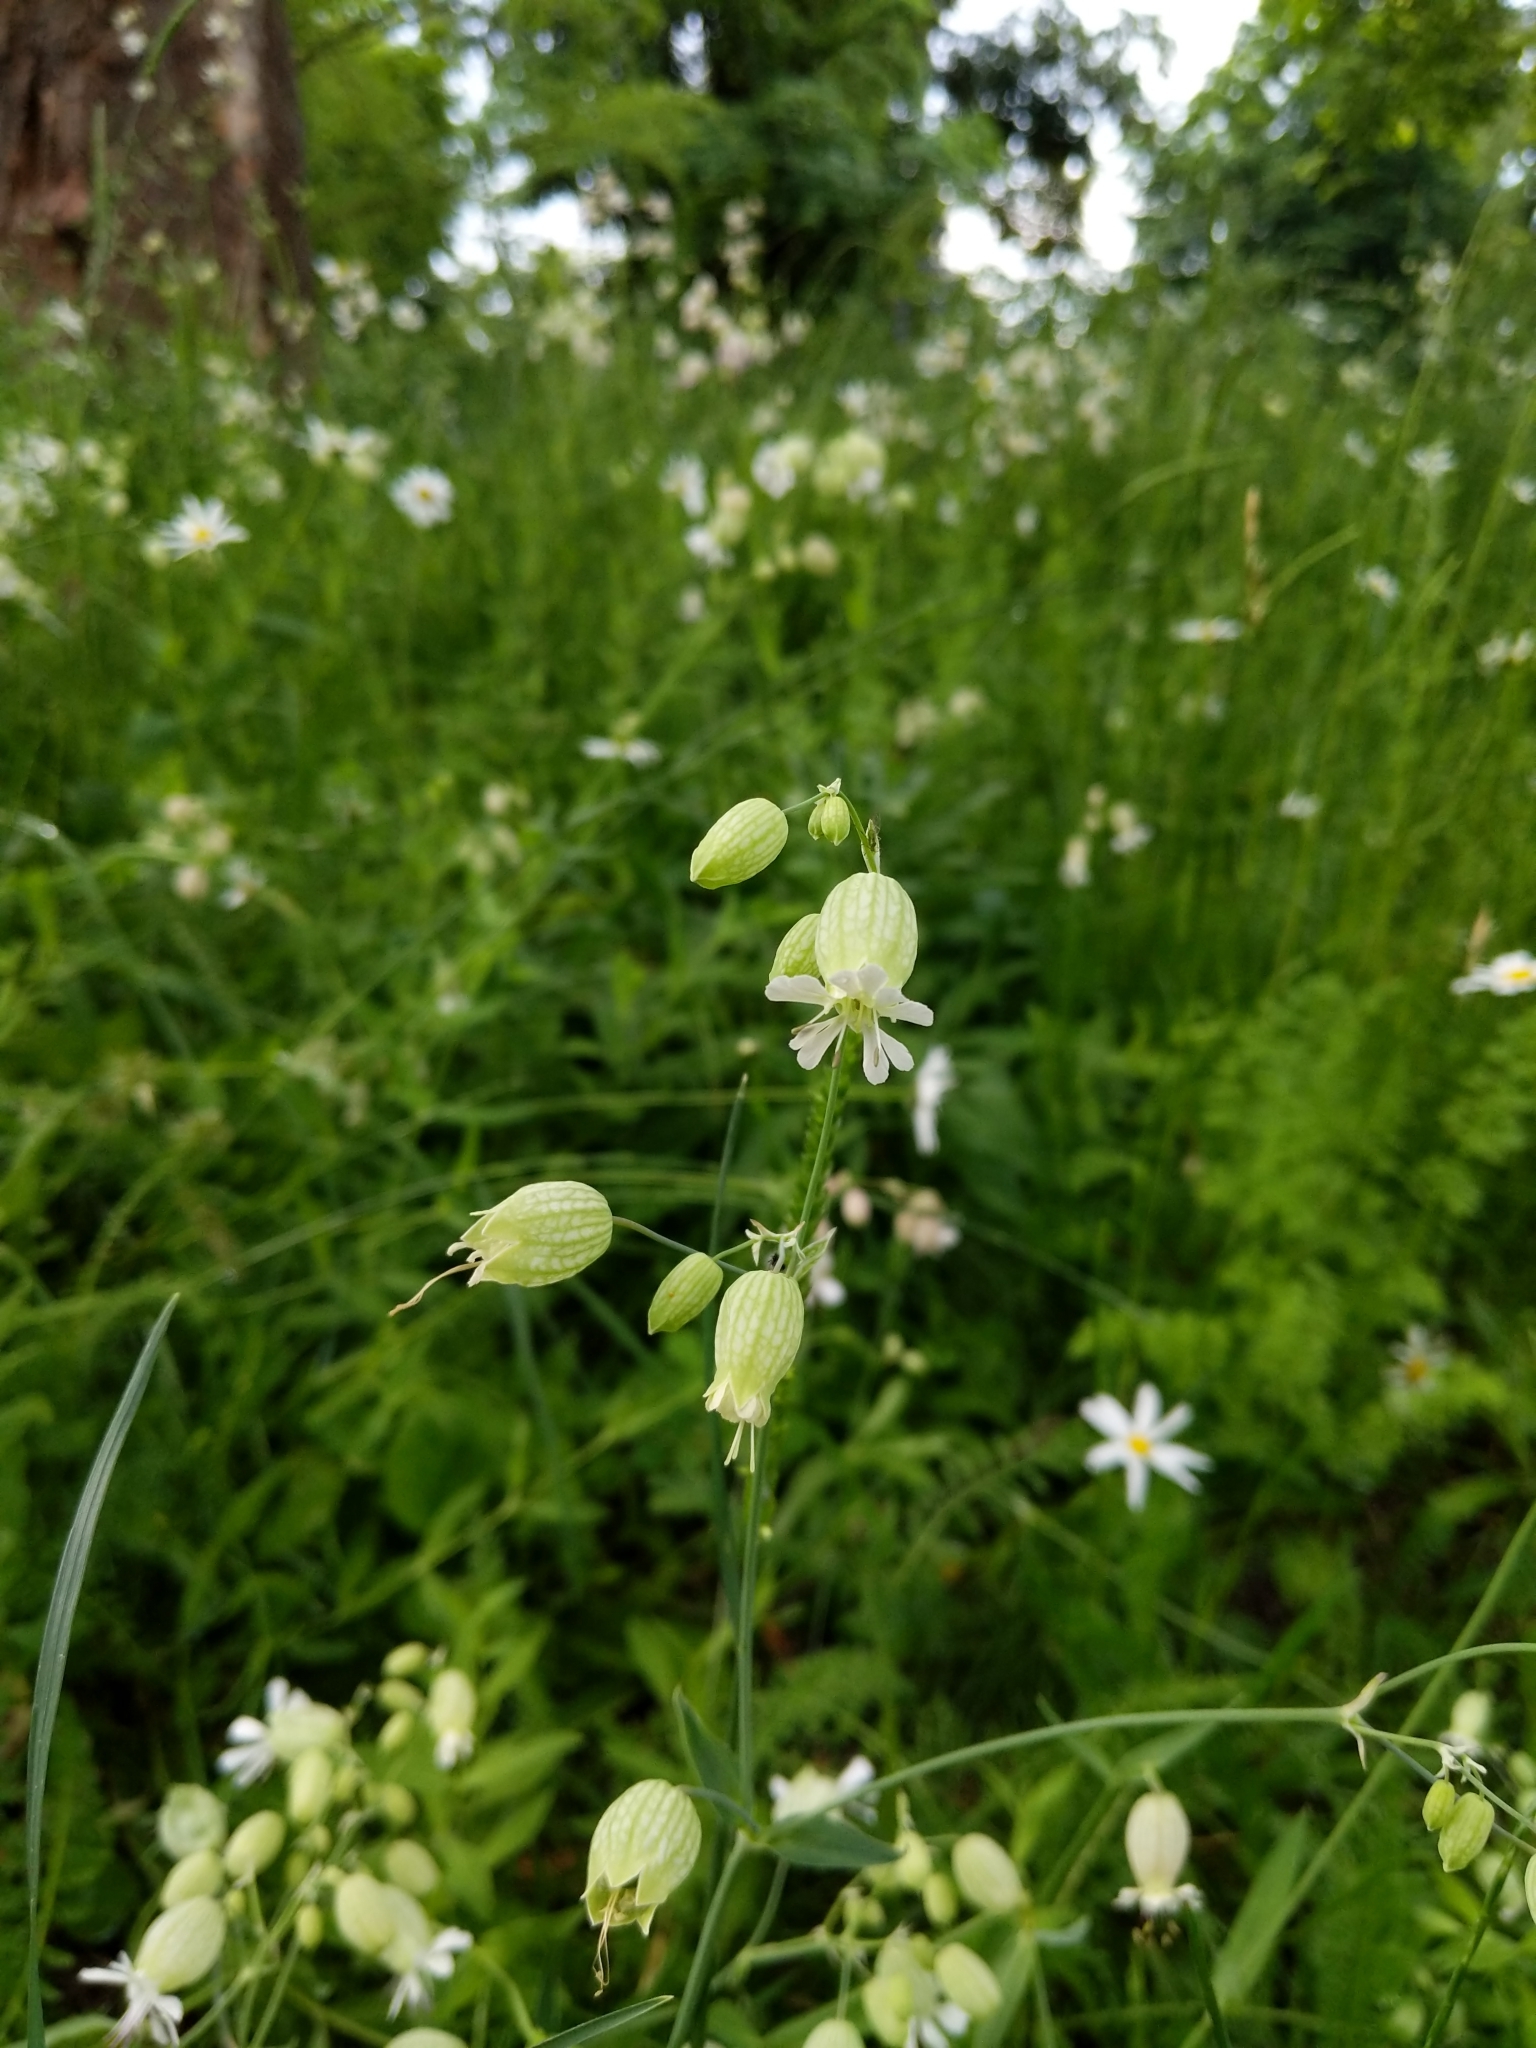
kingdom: Plantae
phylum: Tracheophyta
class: Magnoliopsida
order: Caryophyllales
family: Caryophyllaceae
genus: Silene
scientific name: Silene vulgaris
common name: Bladder campion
